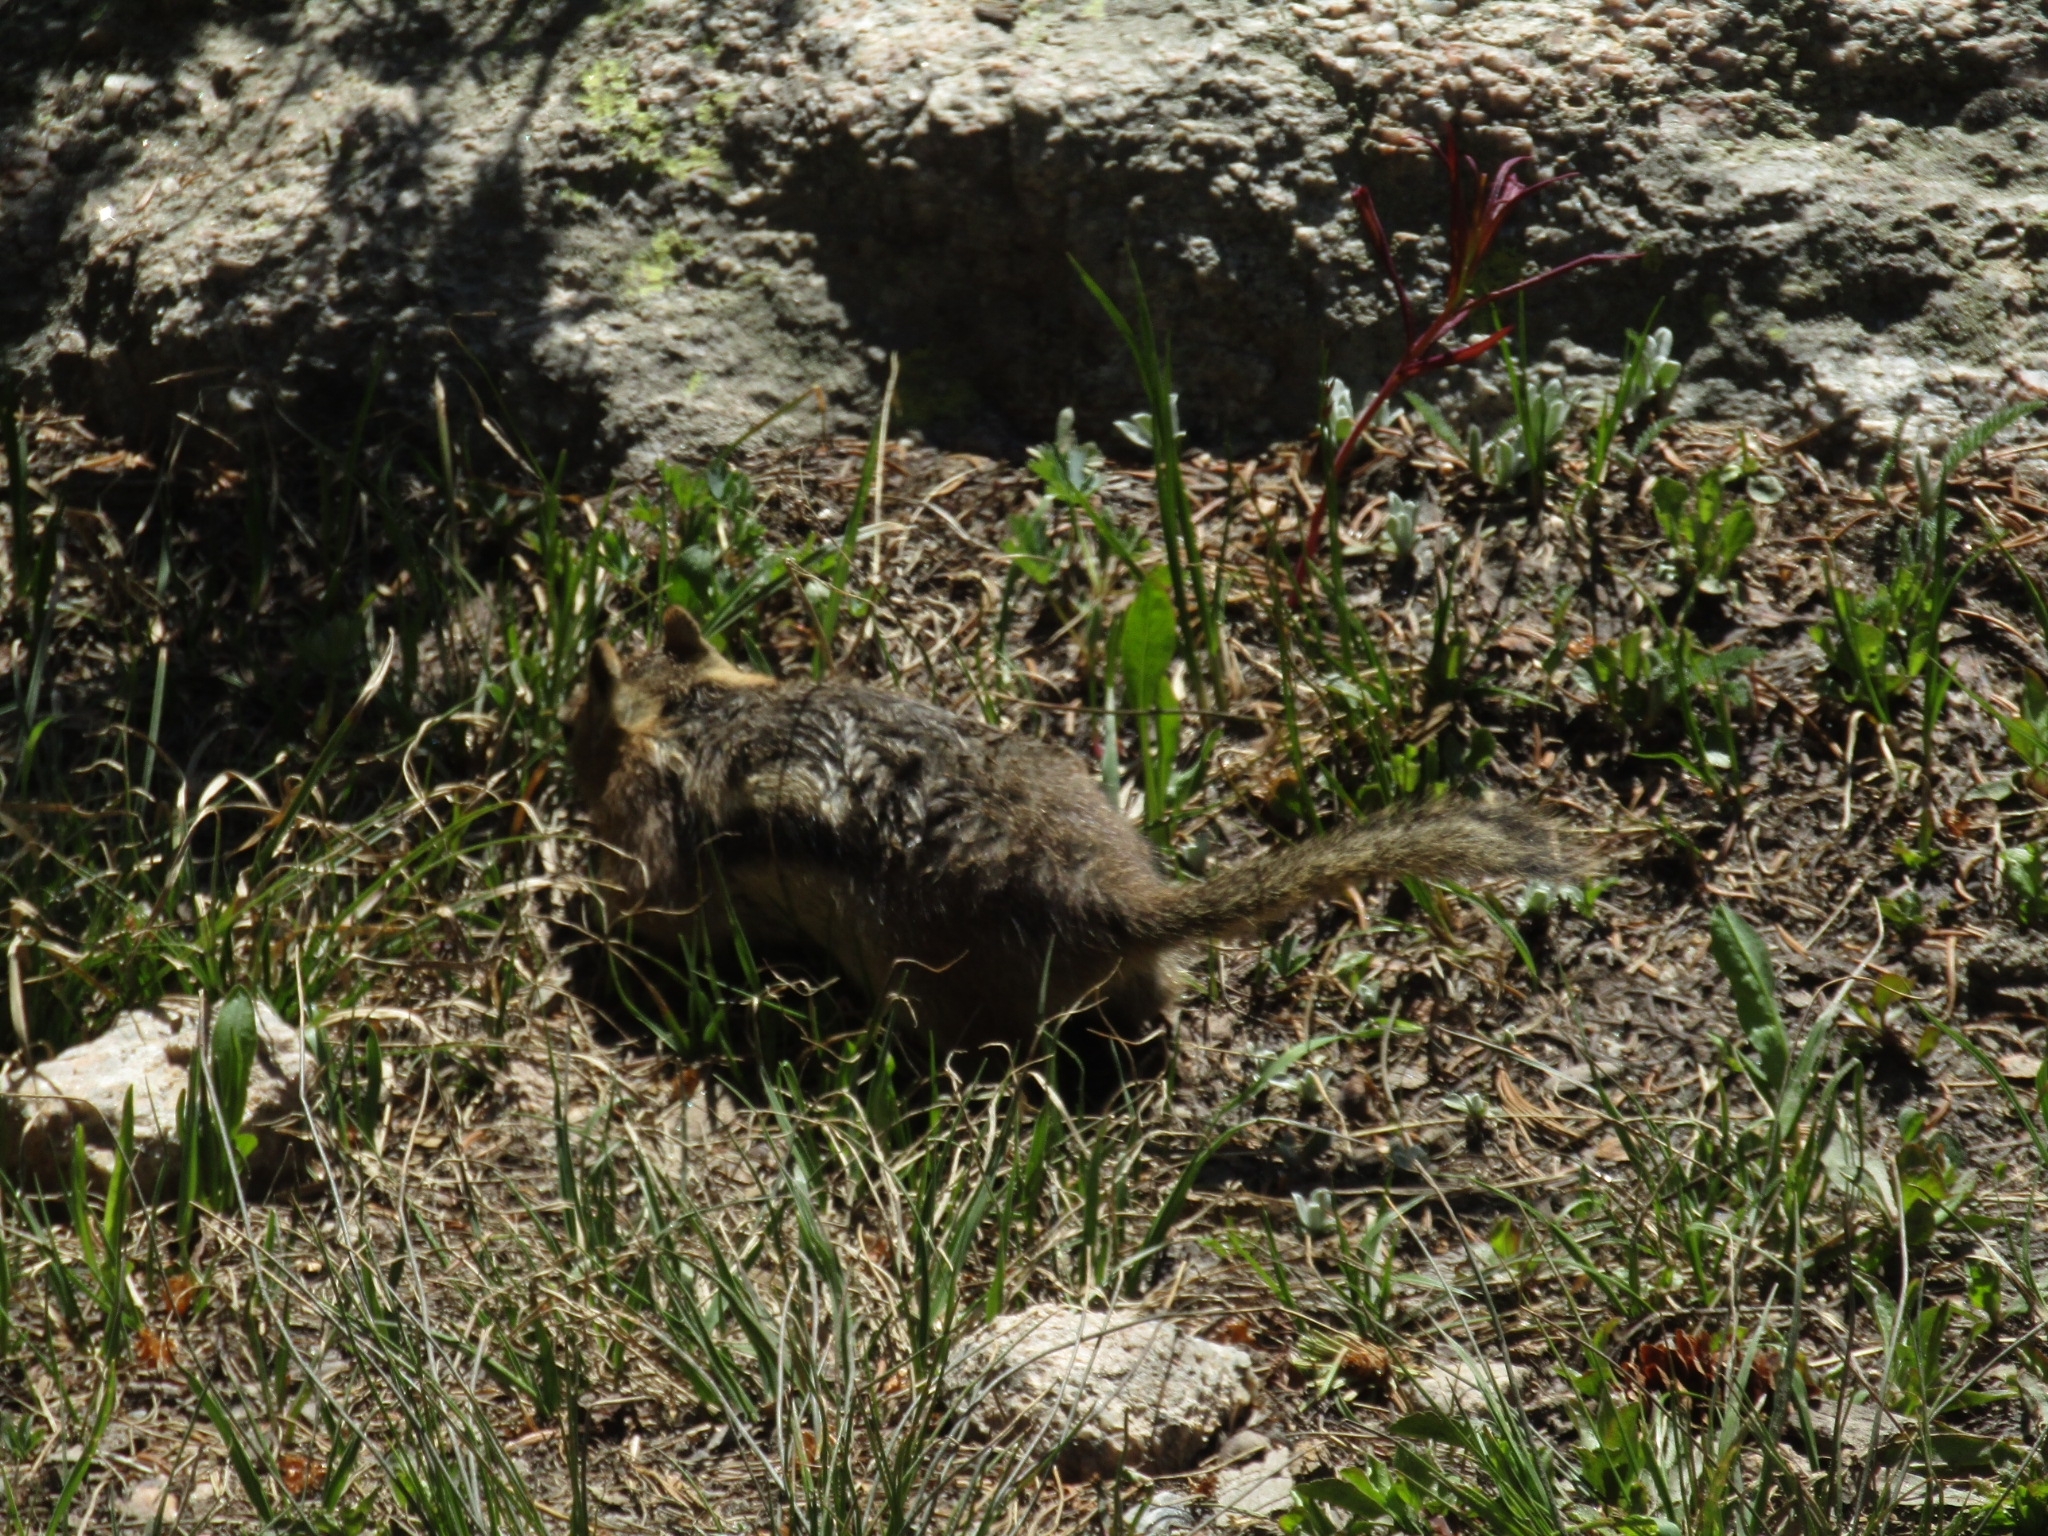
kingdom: Animalia
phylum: Chordata
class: Mammalia
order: Rodentia
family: Sciuridae
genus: Callospermophilus
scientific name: Callospermophilus lateralis
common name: Golden-mantled ground squirrel
